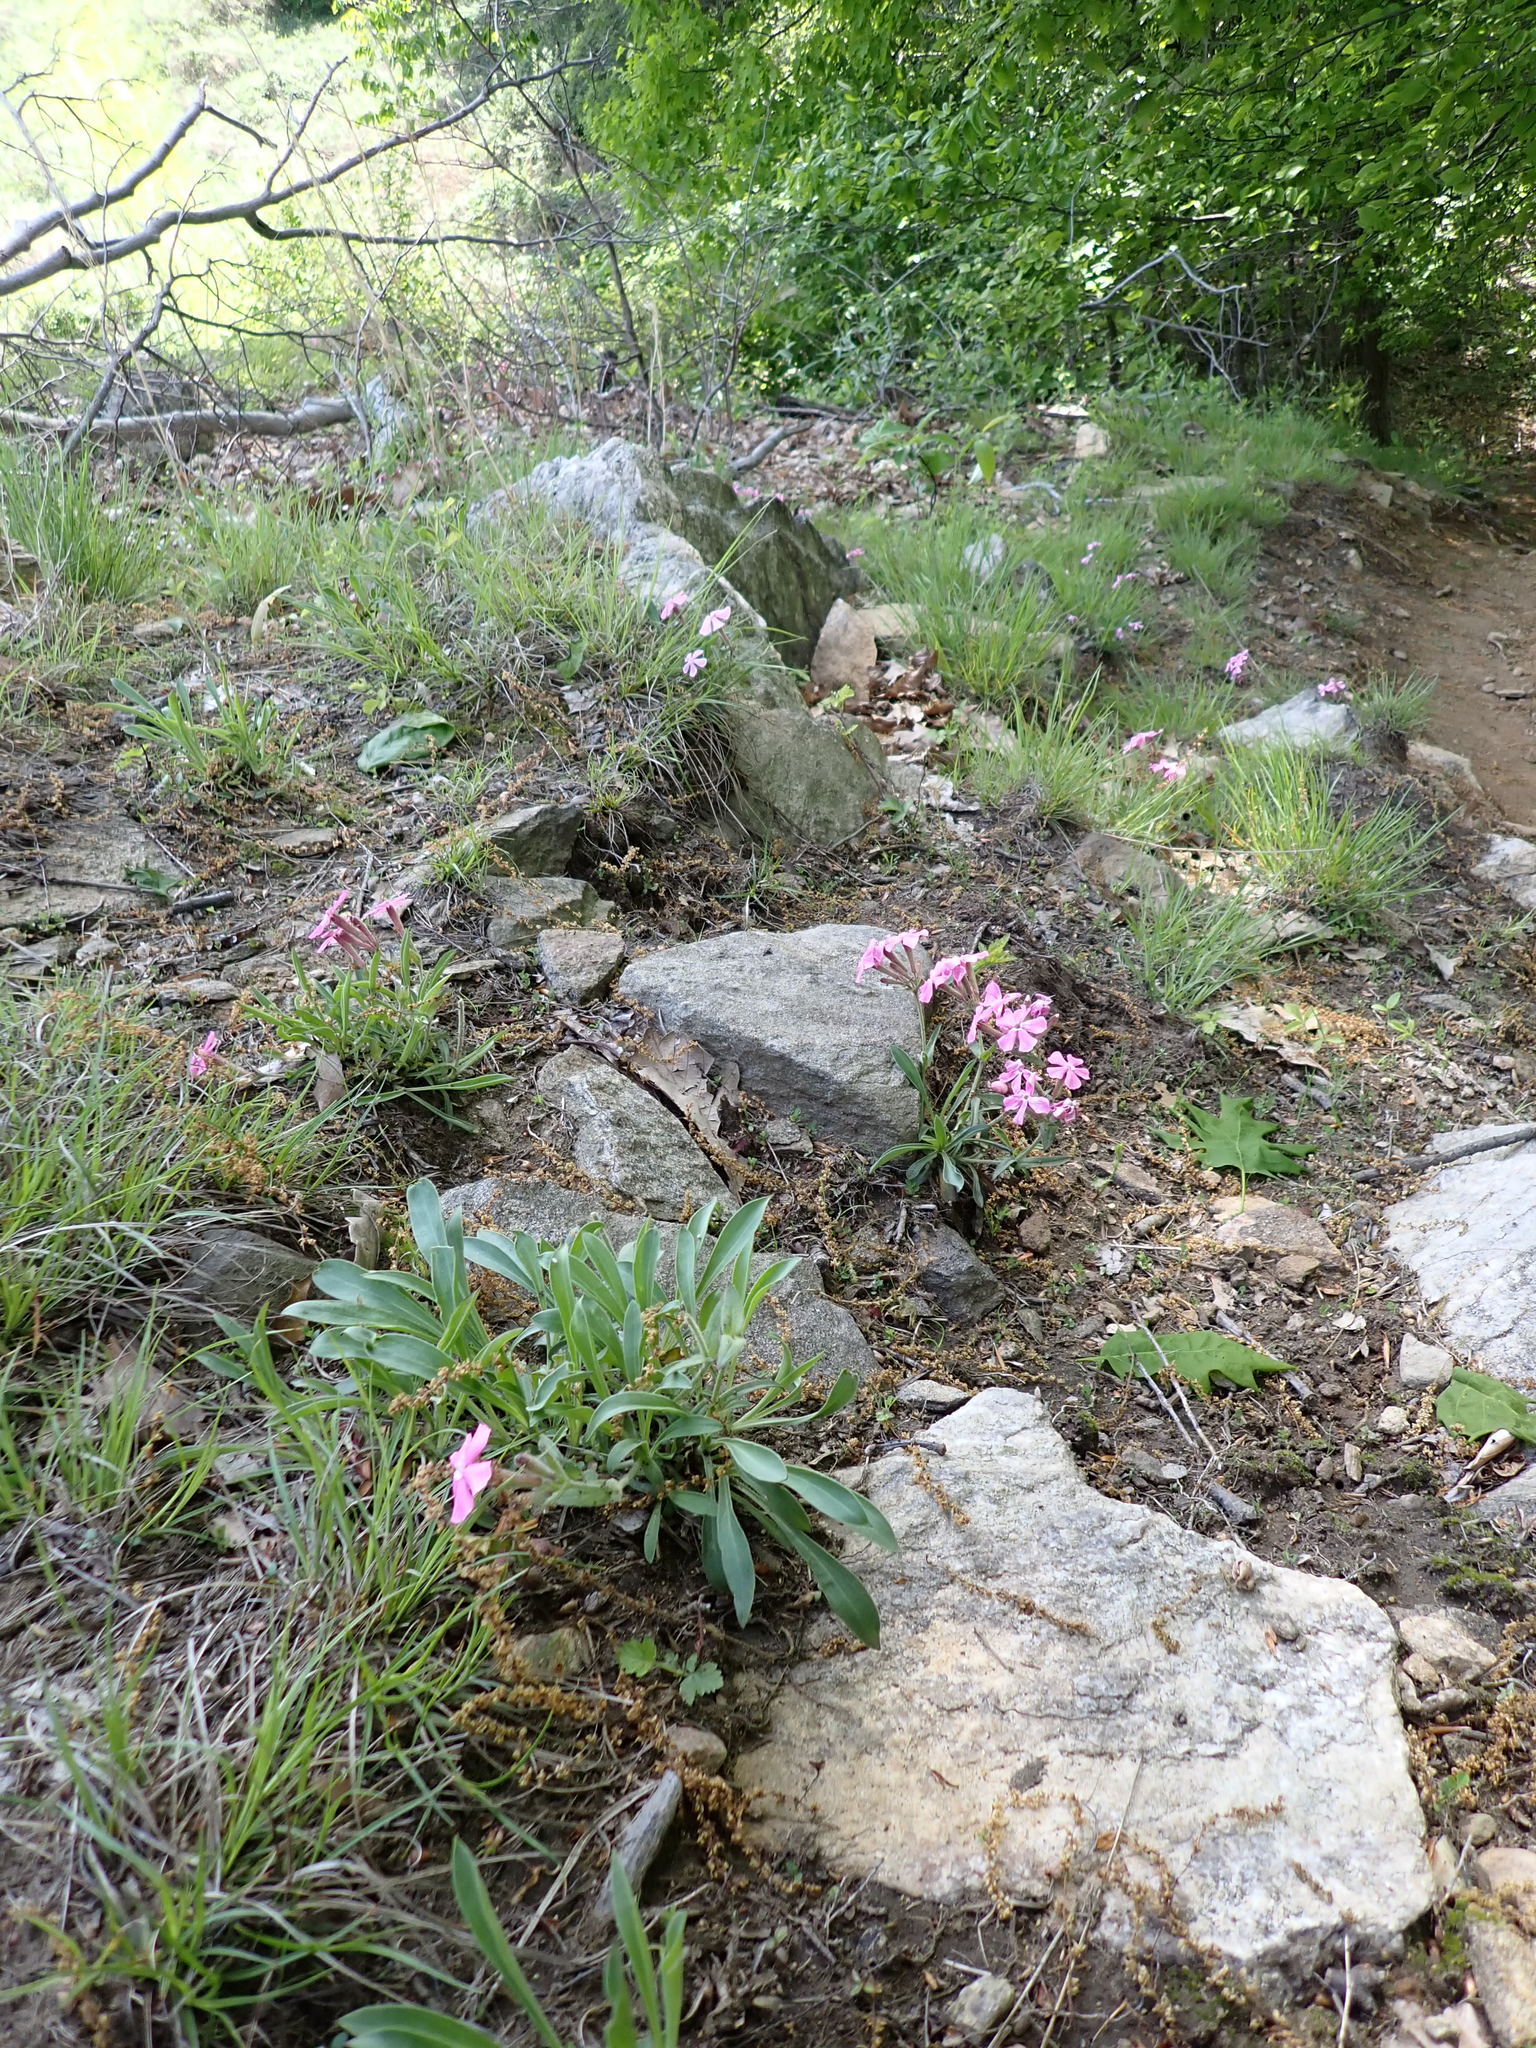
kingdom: Plantae
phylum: Tracheophyta
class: Magnoliopsida
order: Caryophyllales
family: Caryophyllaceae
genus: Silene
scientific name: Silene caroliniana
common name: Sticky catchfly
